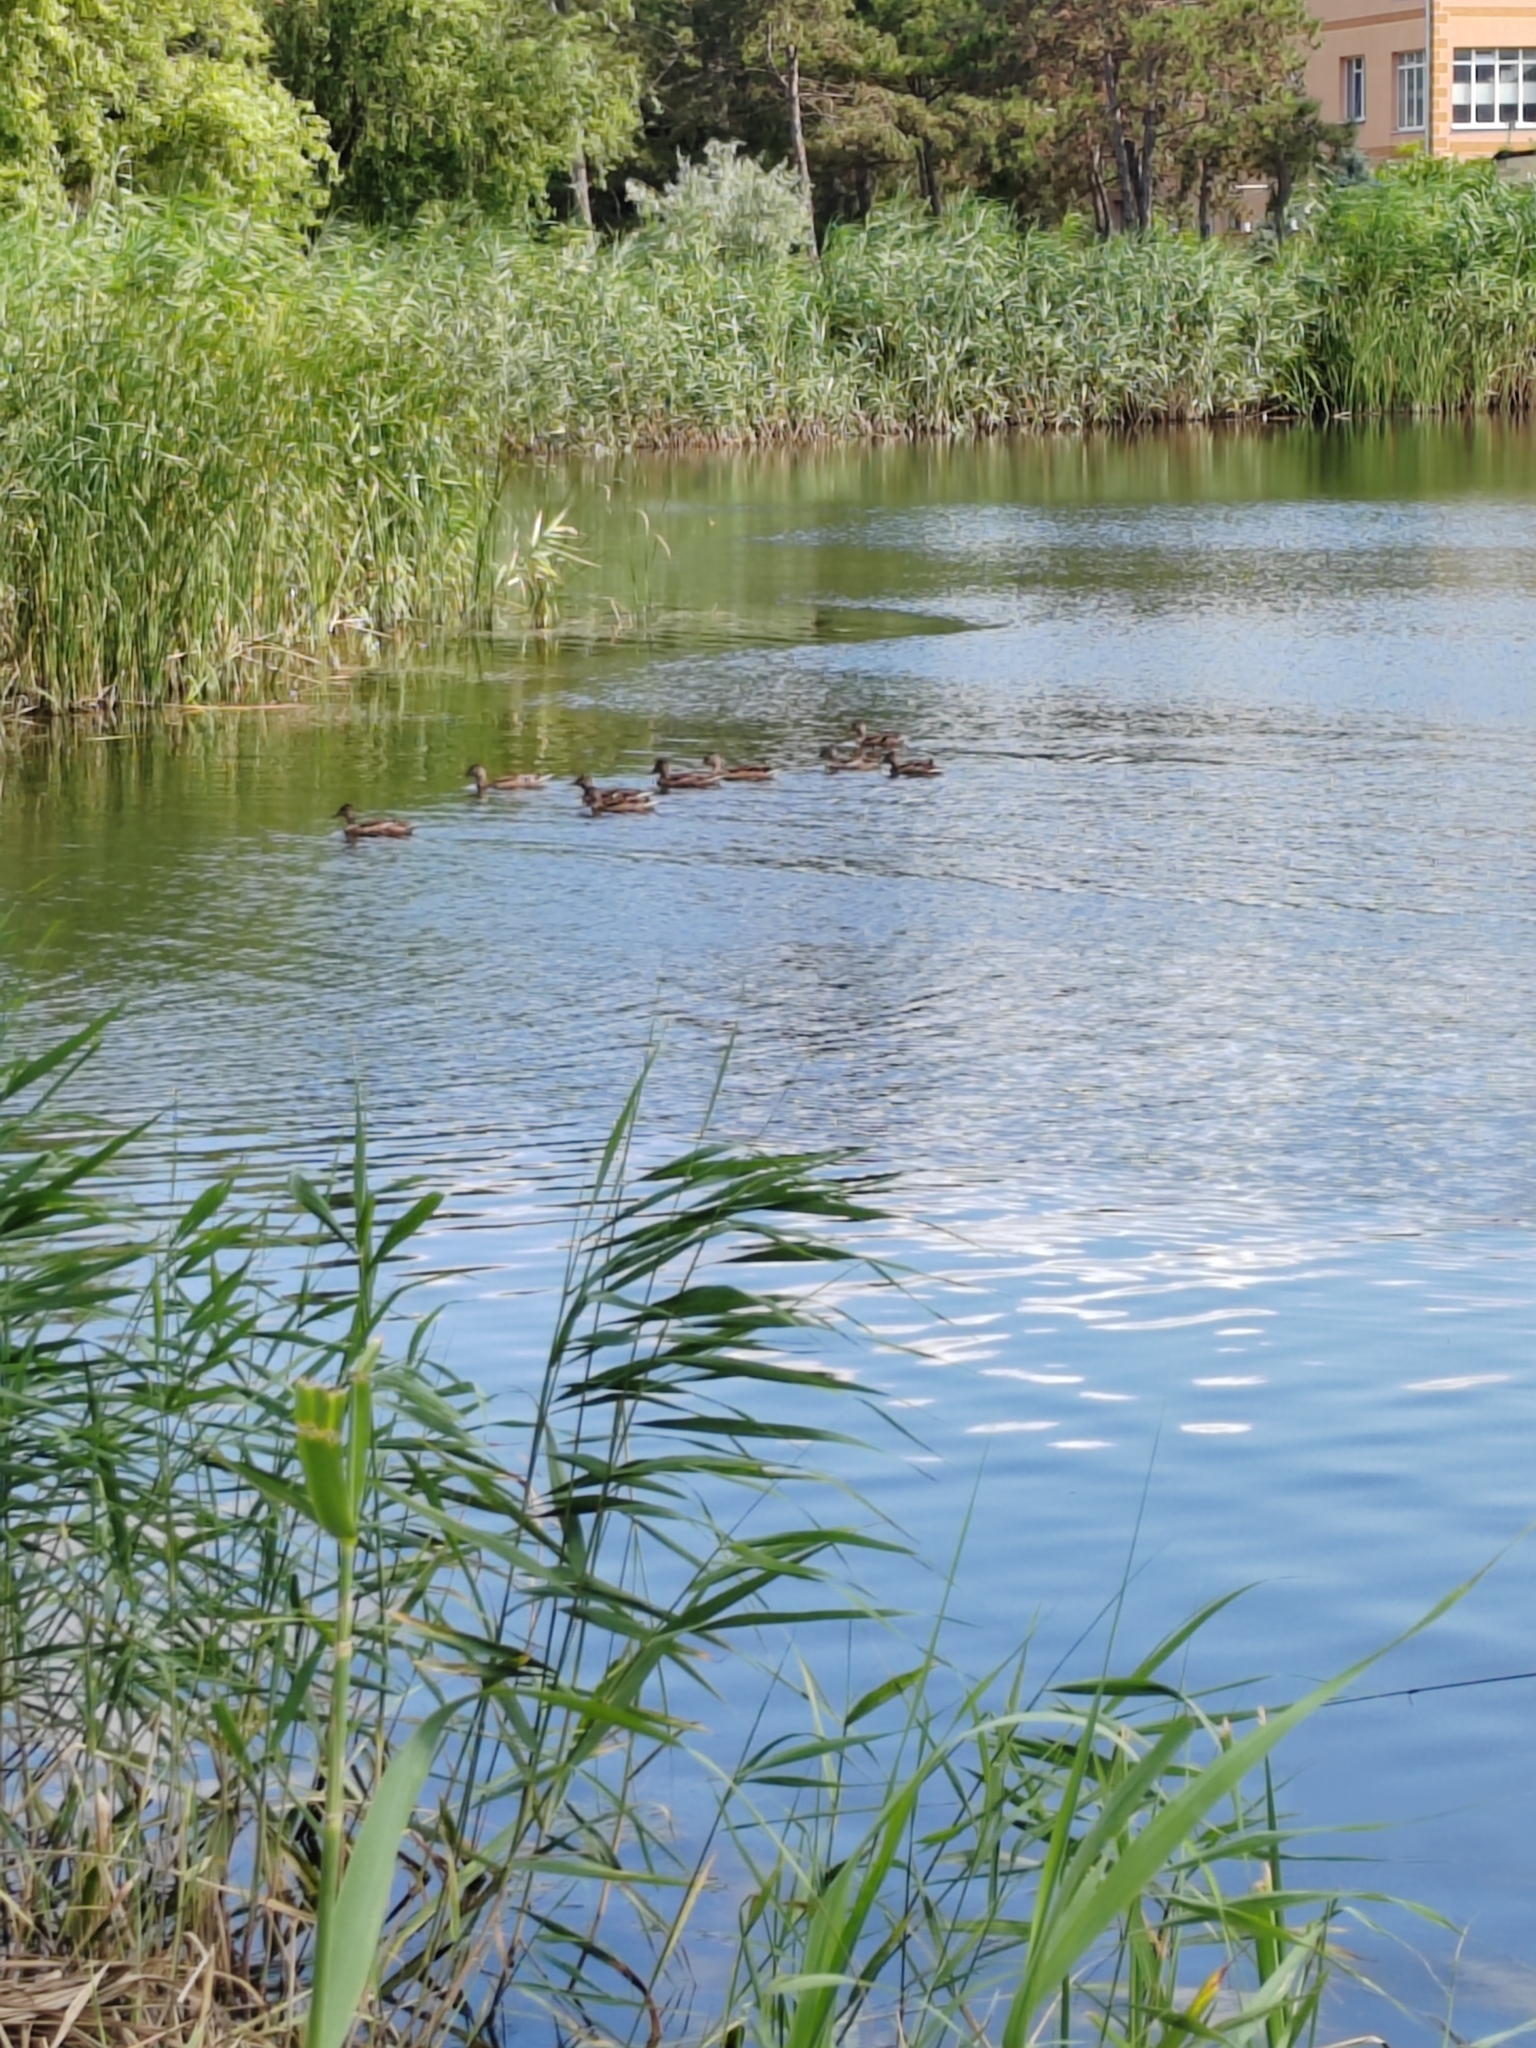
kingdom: Animalia
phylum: Chordata
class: Aves
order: Anseriformes
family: Anatidae
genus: Anas
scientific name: Anas platyrhynchos
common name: Mallard
